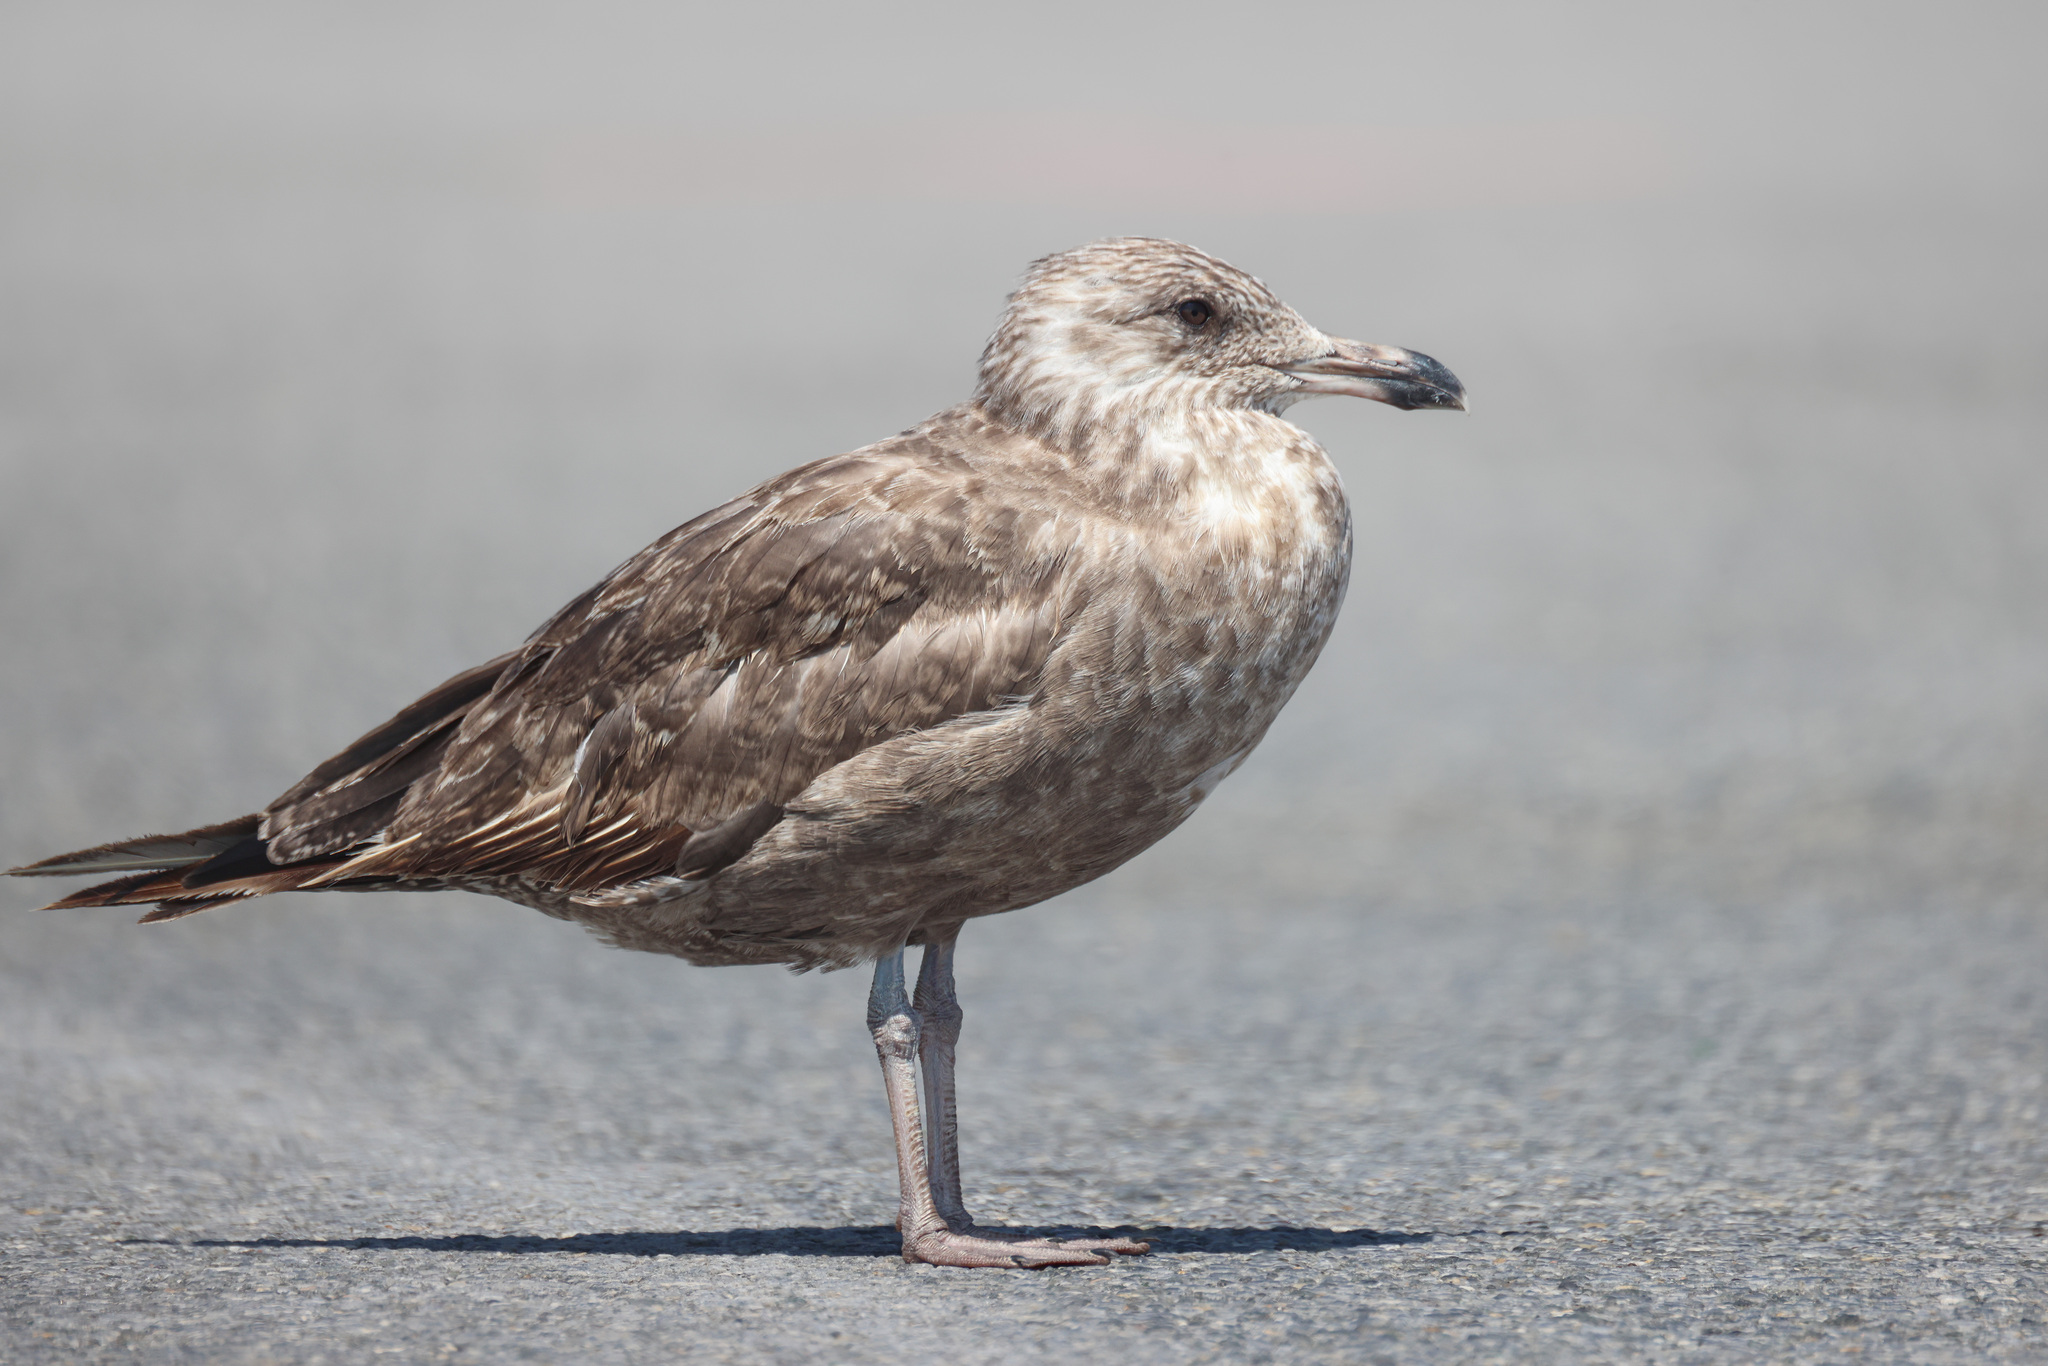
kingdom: Animalia
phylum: Chordata
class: Aves
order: Charadriiformes
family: Laridae
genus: Larus
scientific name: Larus smithsonianus
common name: American herring gull
